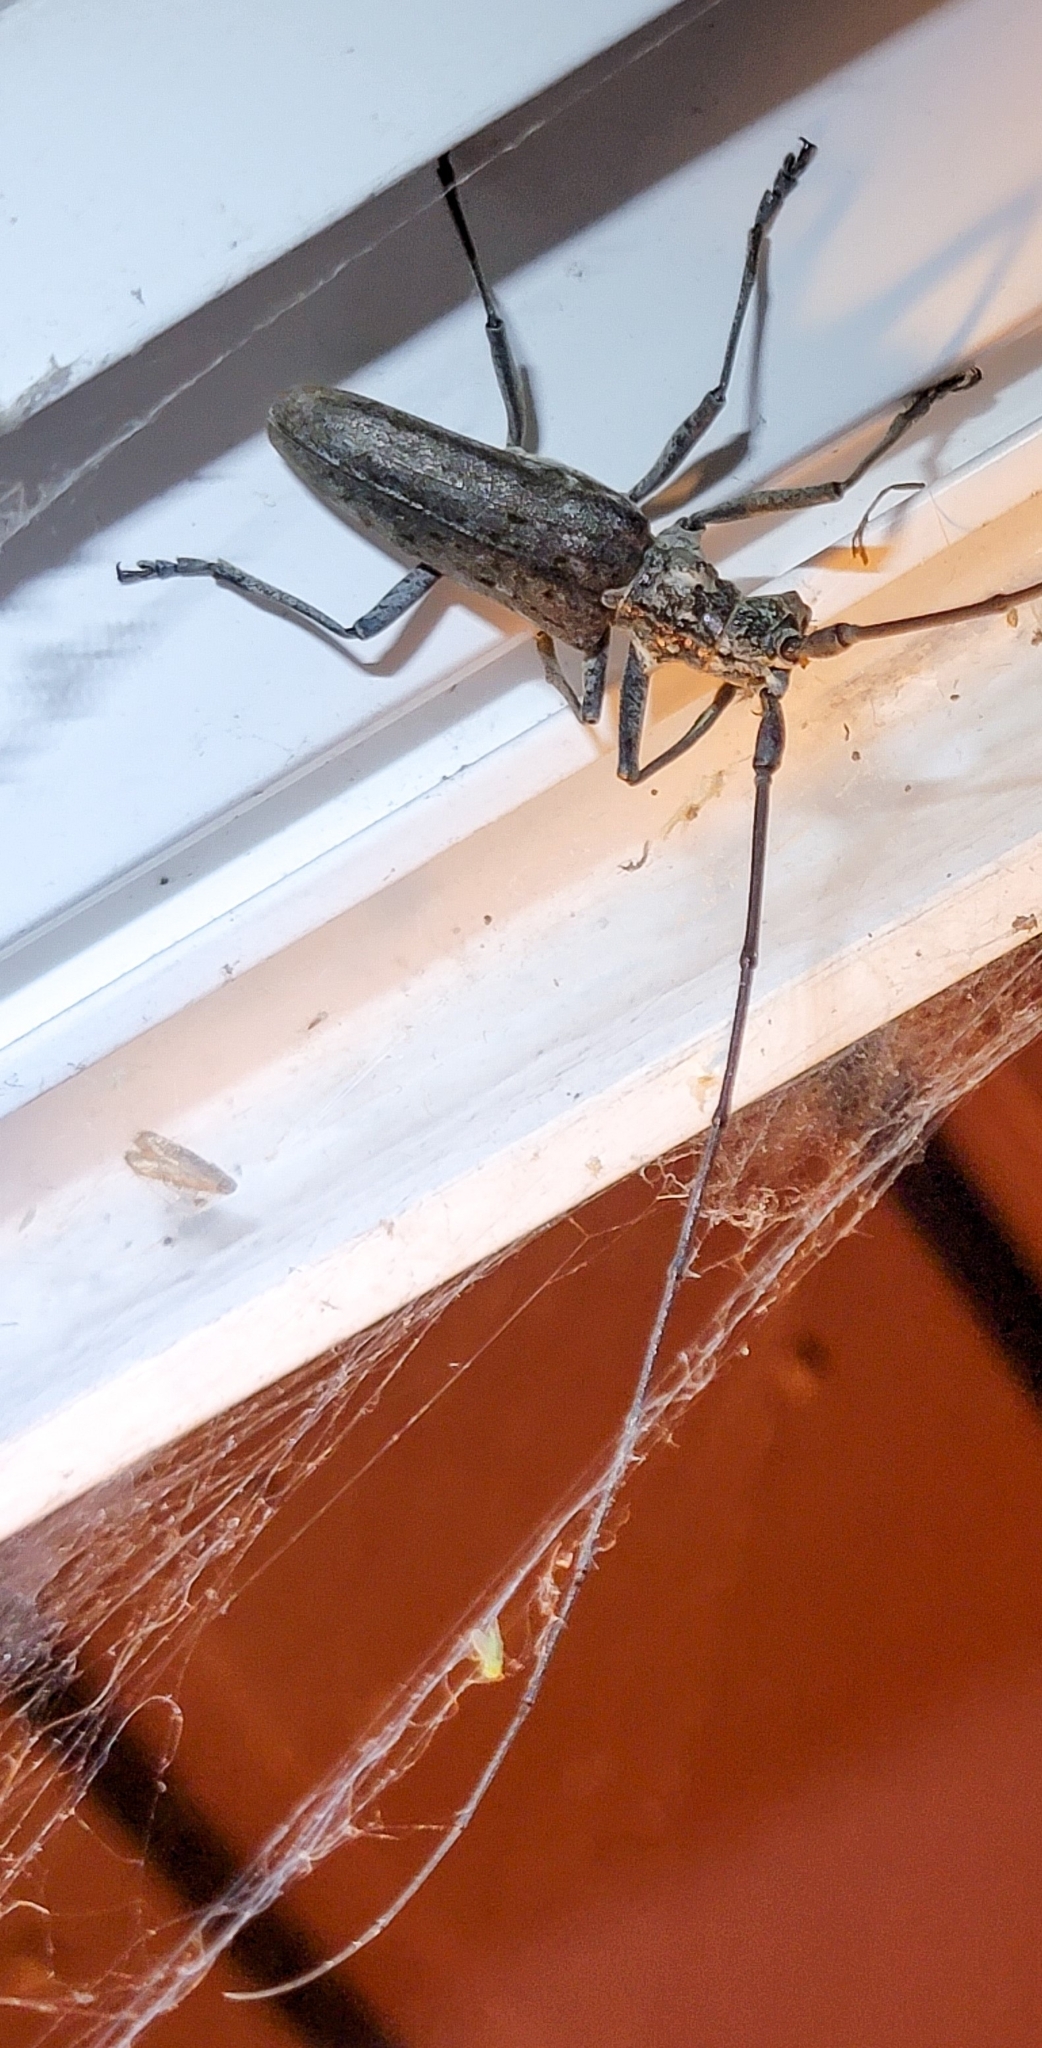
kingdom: Animalia
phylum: Arthropoda
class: Insecta
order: Coleoptera
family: Cerambycidae
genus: Monochamus
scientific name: Monochamus notatus
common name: Northeastern pine sawyer beetle
